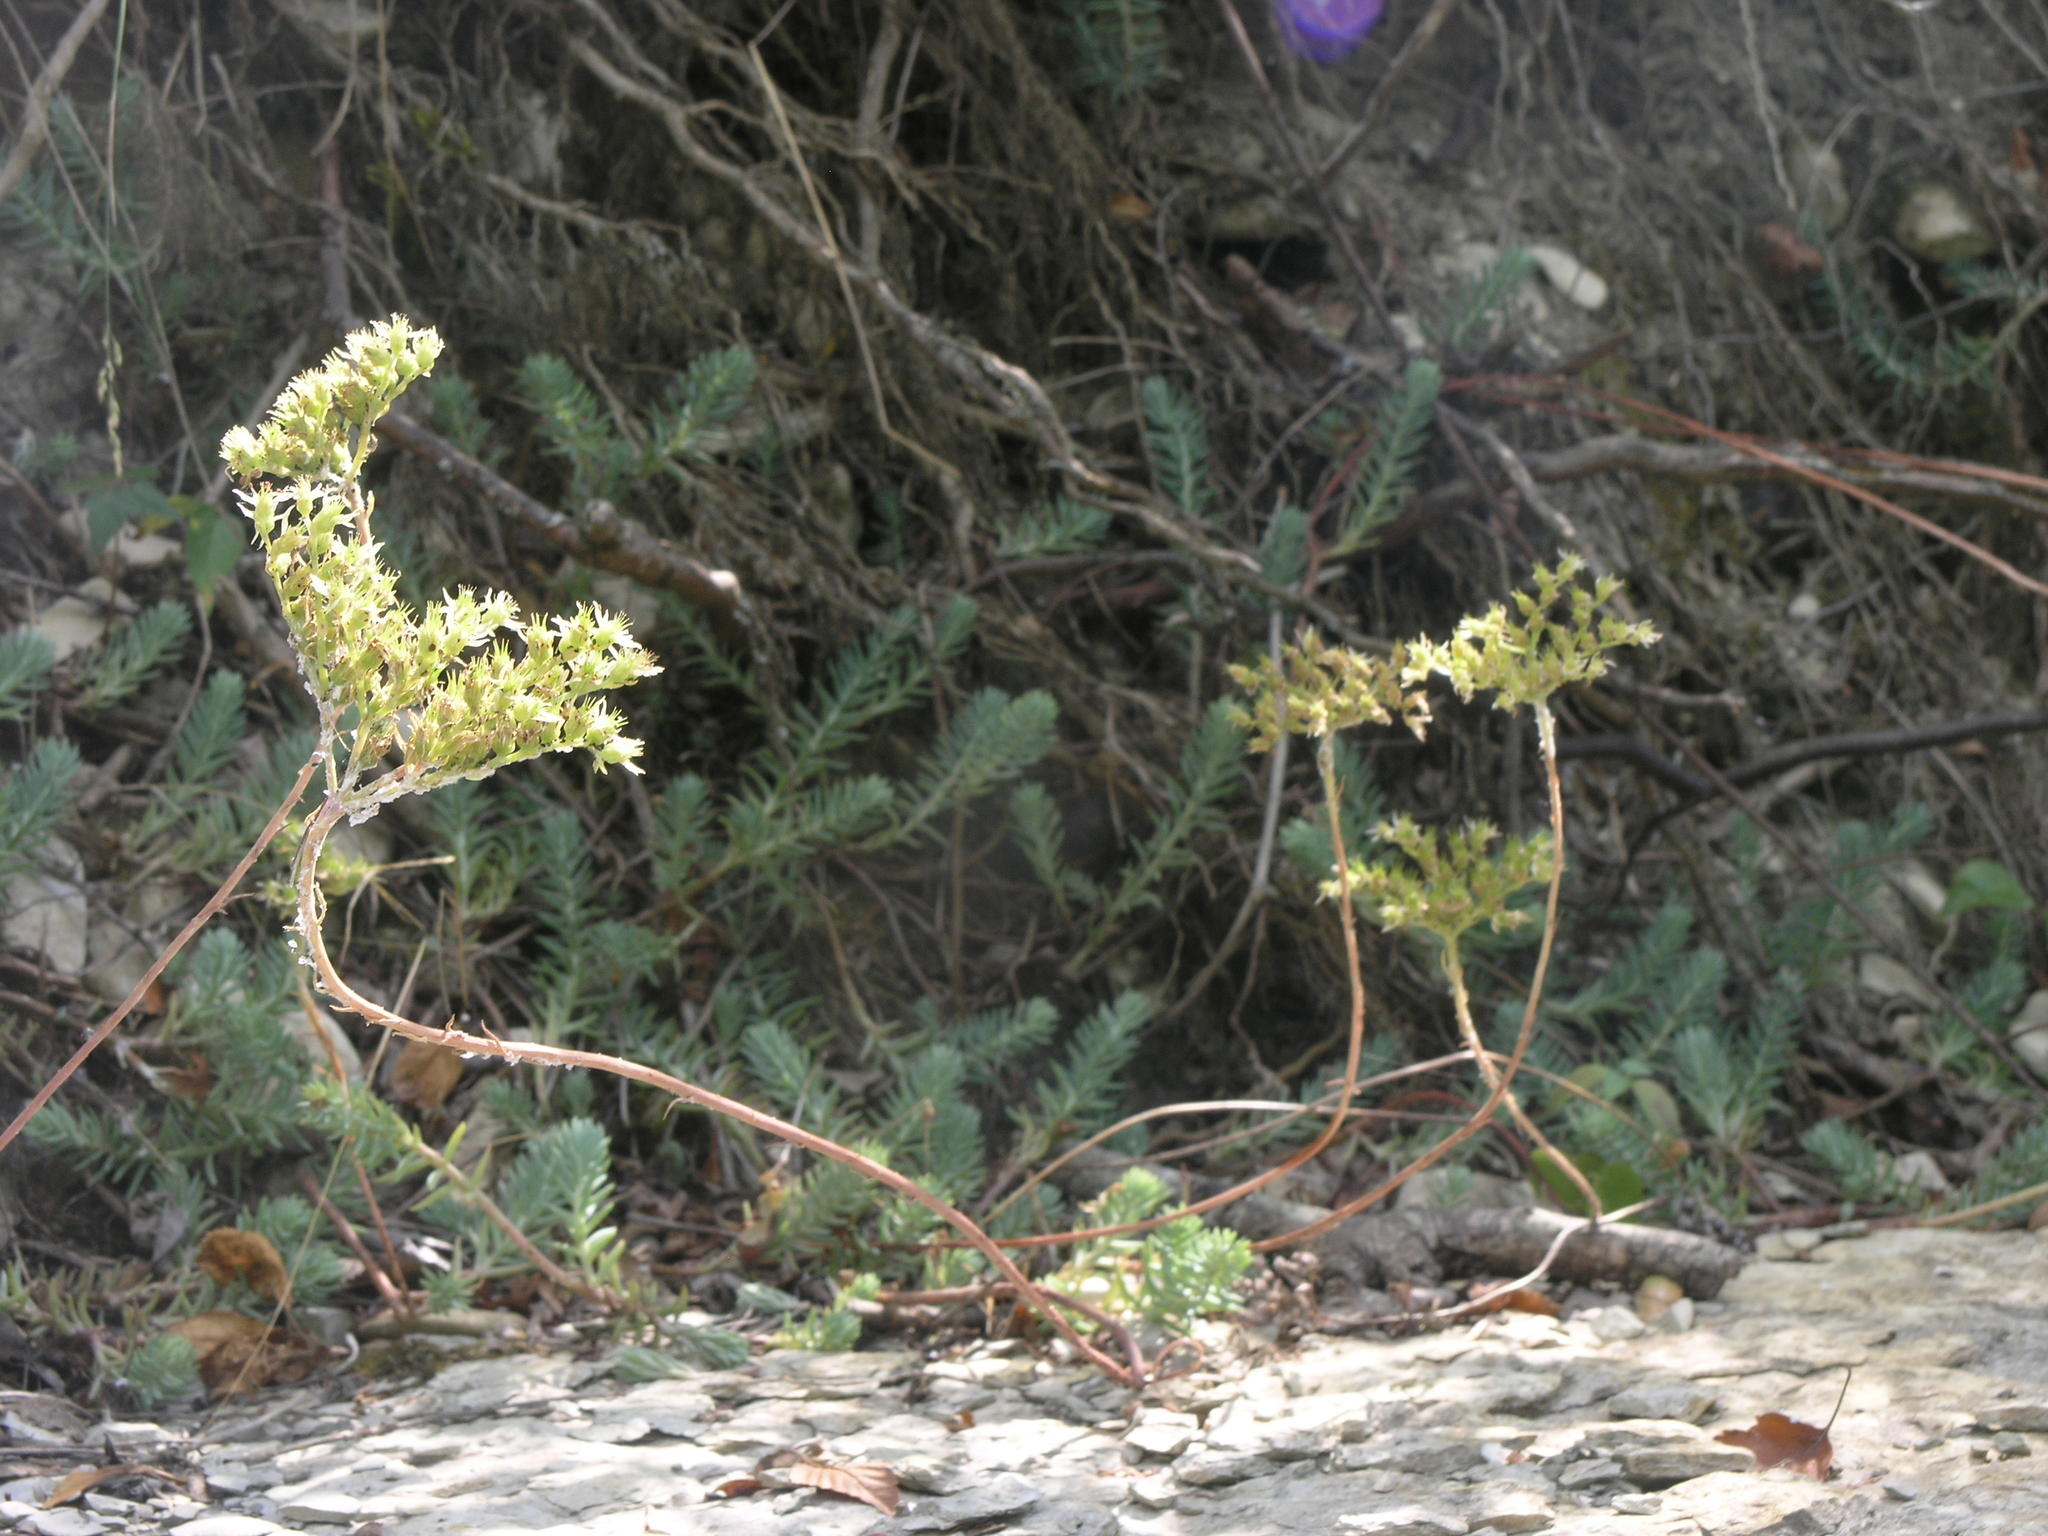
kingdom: Plantae
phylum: Tracheophyta
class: Magnoliopsida
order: Saxifragales
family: Crassulaceae
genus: Petrosedum
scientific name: Petrosedum rupestre
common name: Jenny's stonecrop
